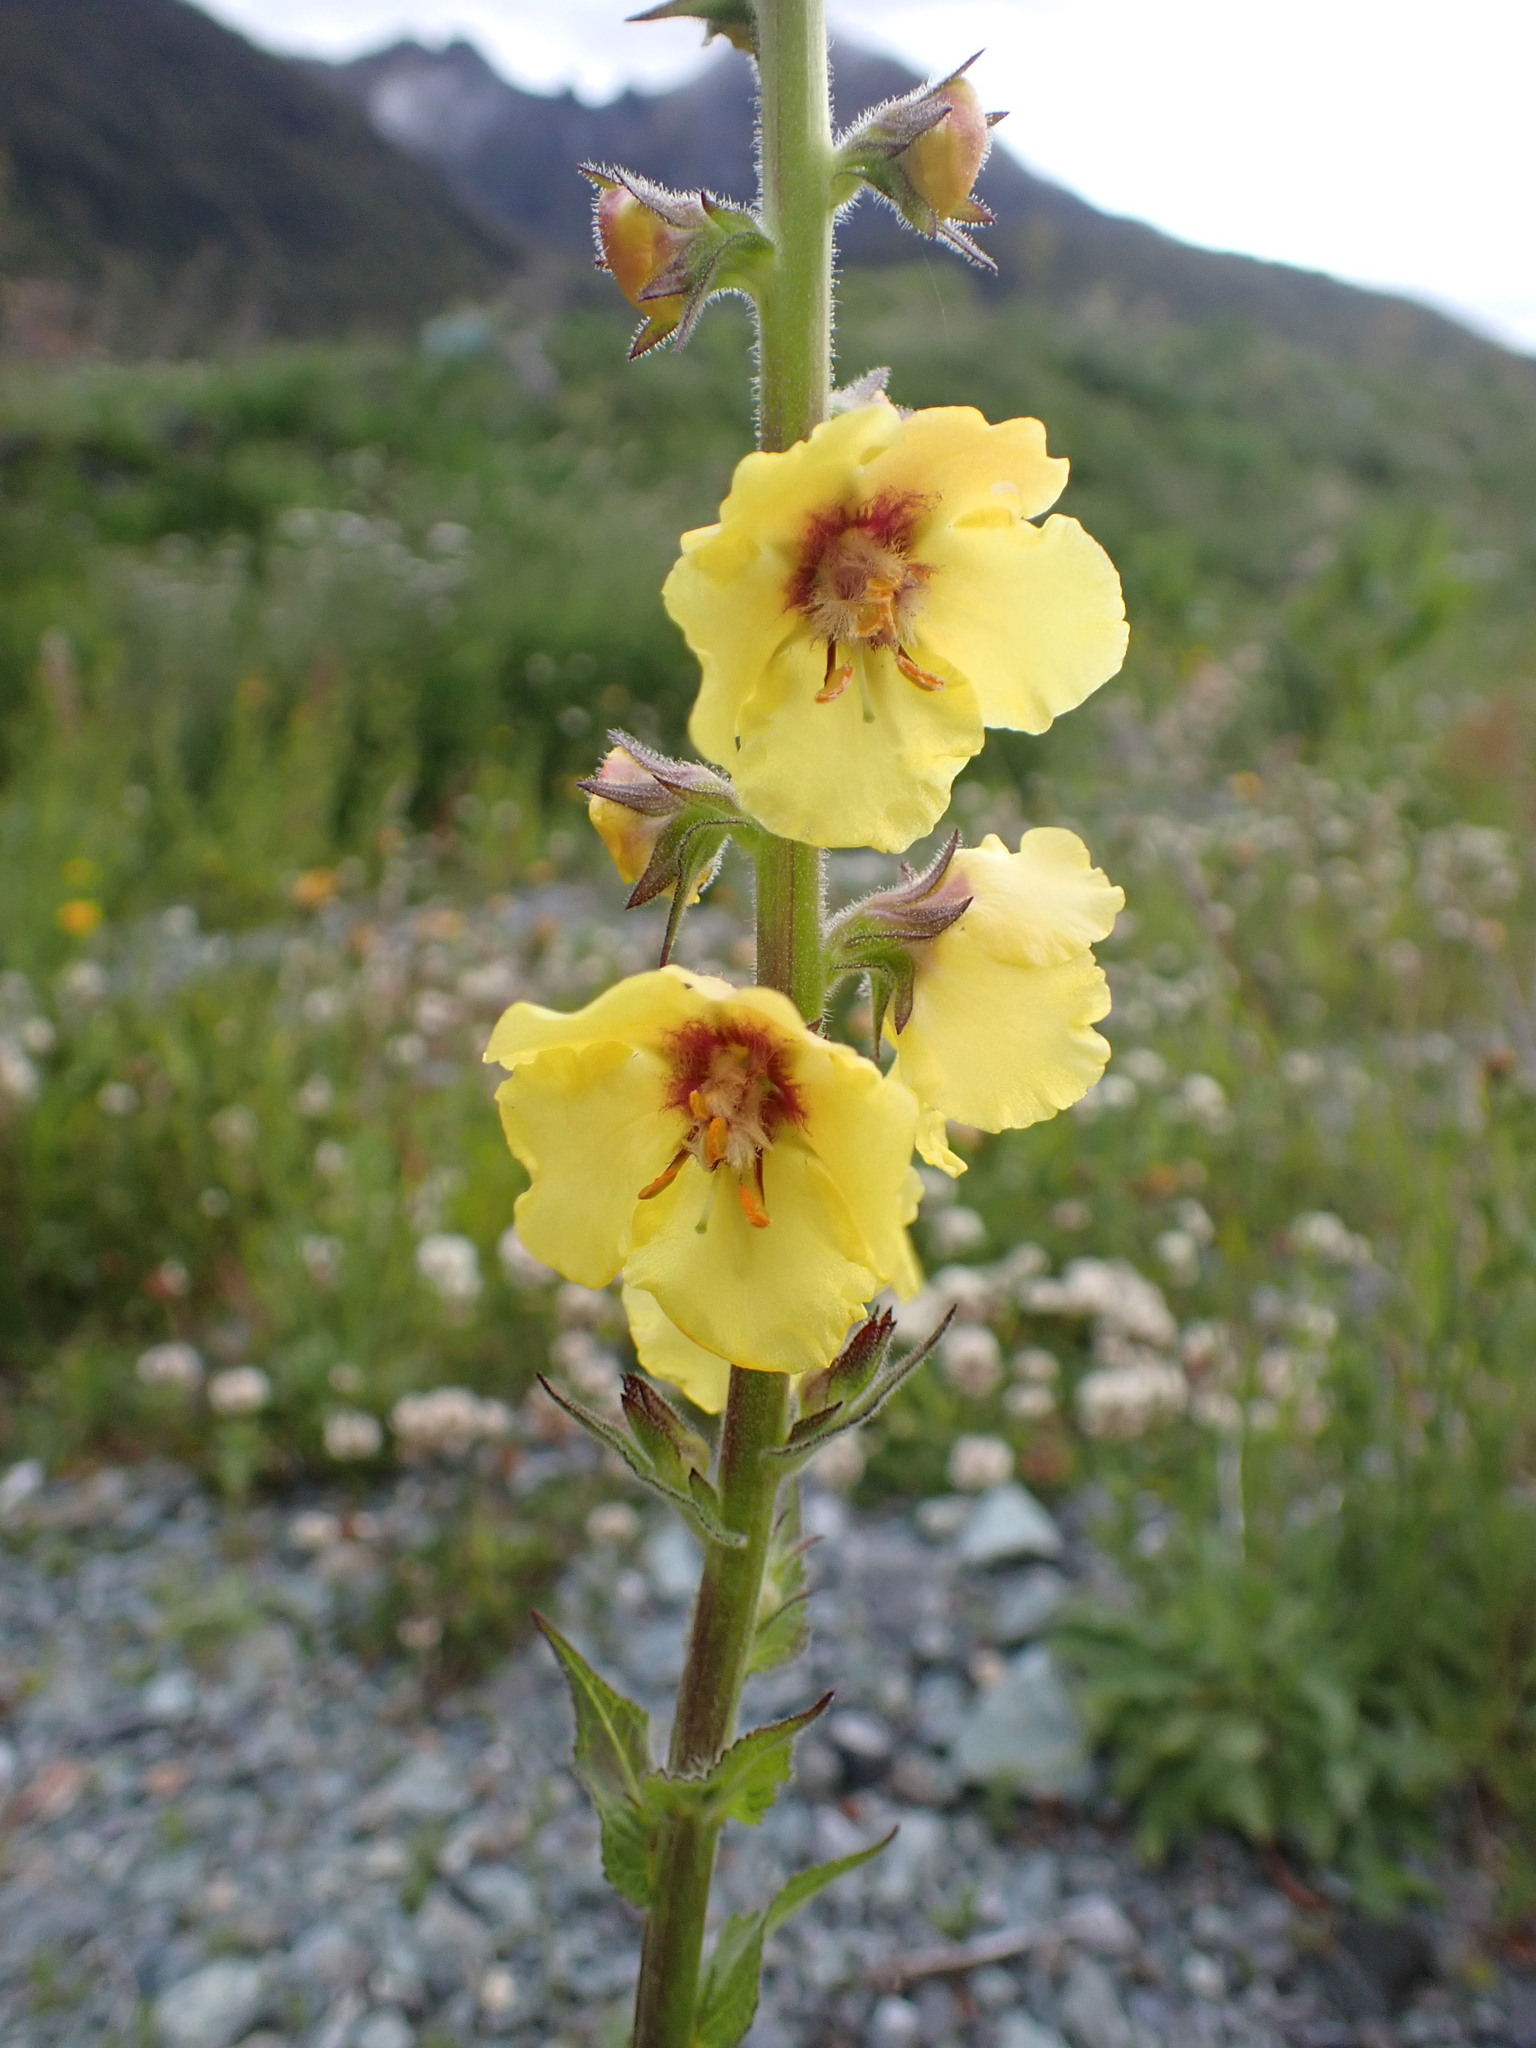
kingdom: Plantae
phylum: Tracheophyta
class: Magnoliopsida
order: Lamiales
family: Scrophulariaceae
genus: Verbascum
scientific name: Verbascum virgatum
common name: Twiggy mullein
